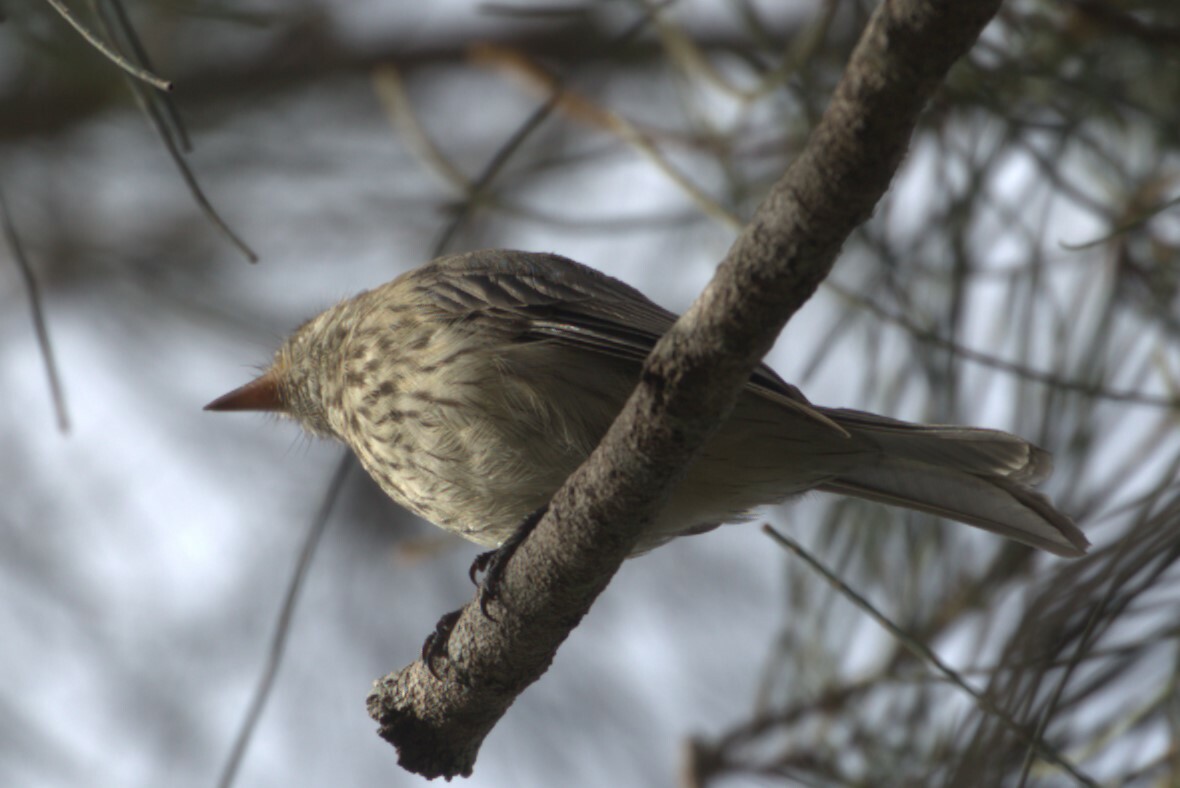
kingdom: Animalia
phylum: Chordata
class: Aves
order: Passeriformes
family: Pachycephalidae
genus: Pachycephala
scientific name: Pachycephala rufiventris
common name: Rufous whistler
